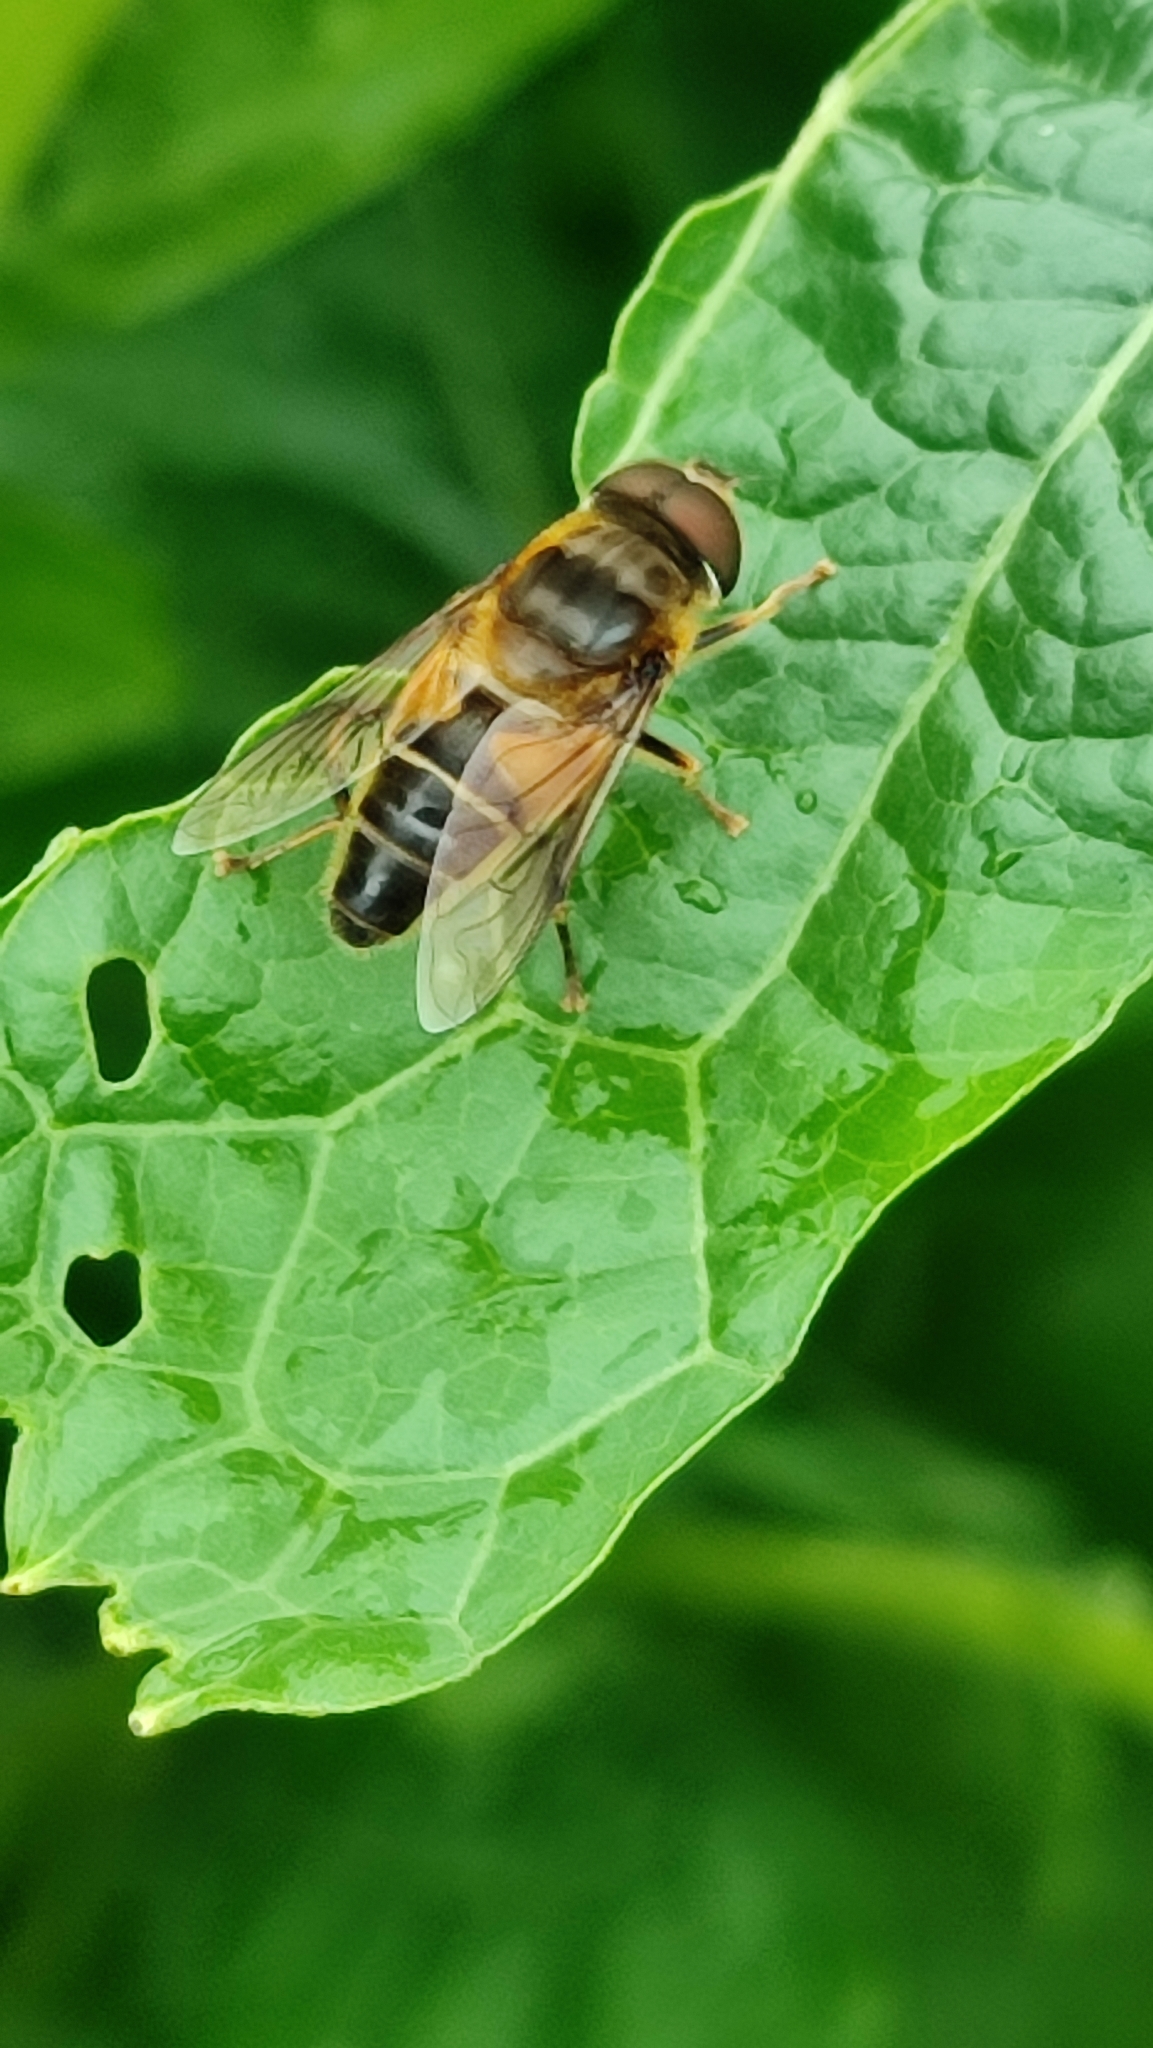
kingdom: Animalia
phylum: Arthropoda
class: Insecta
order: Diptera
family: Syrphidae
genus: Eristalis
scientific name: Eristalis pertinax
